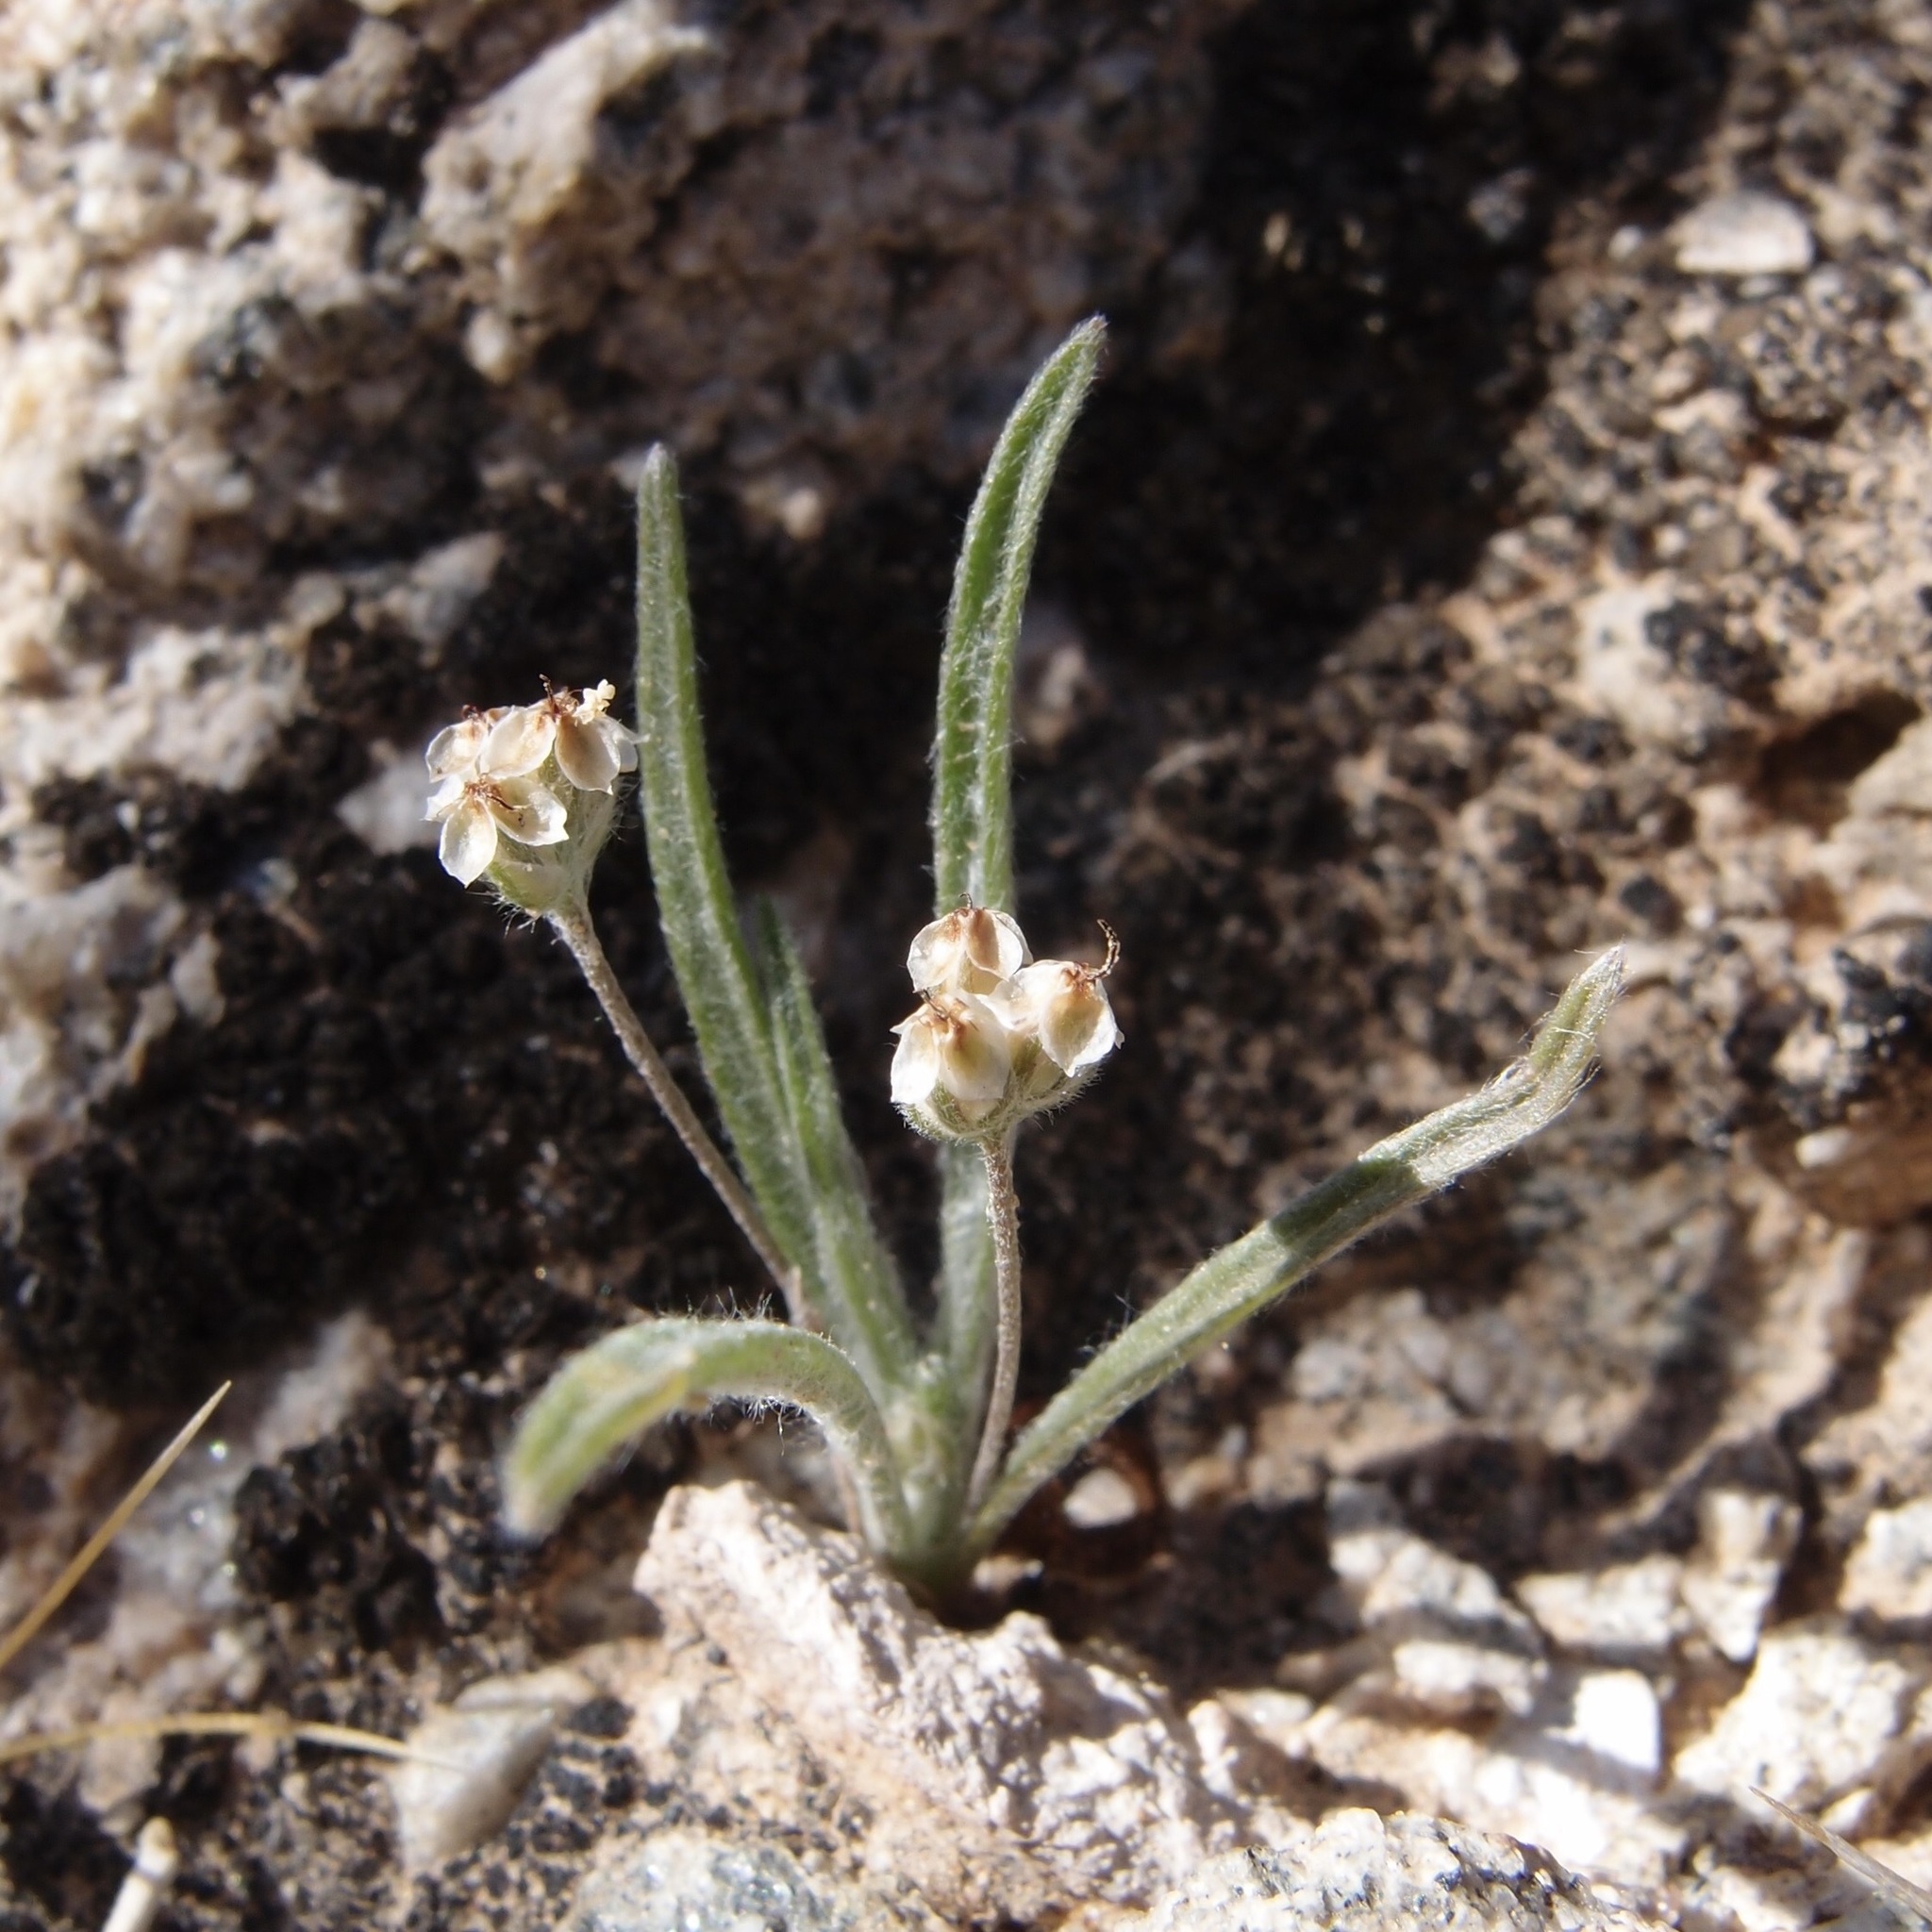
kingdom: Plantae
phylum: Tracheophyta
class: Magnoliopsida
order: Lamiales
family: Plantaginaceae
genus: Plantago
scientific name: Plantago ovata
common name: Blond plantain
